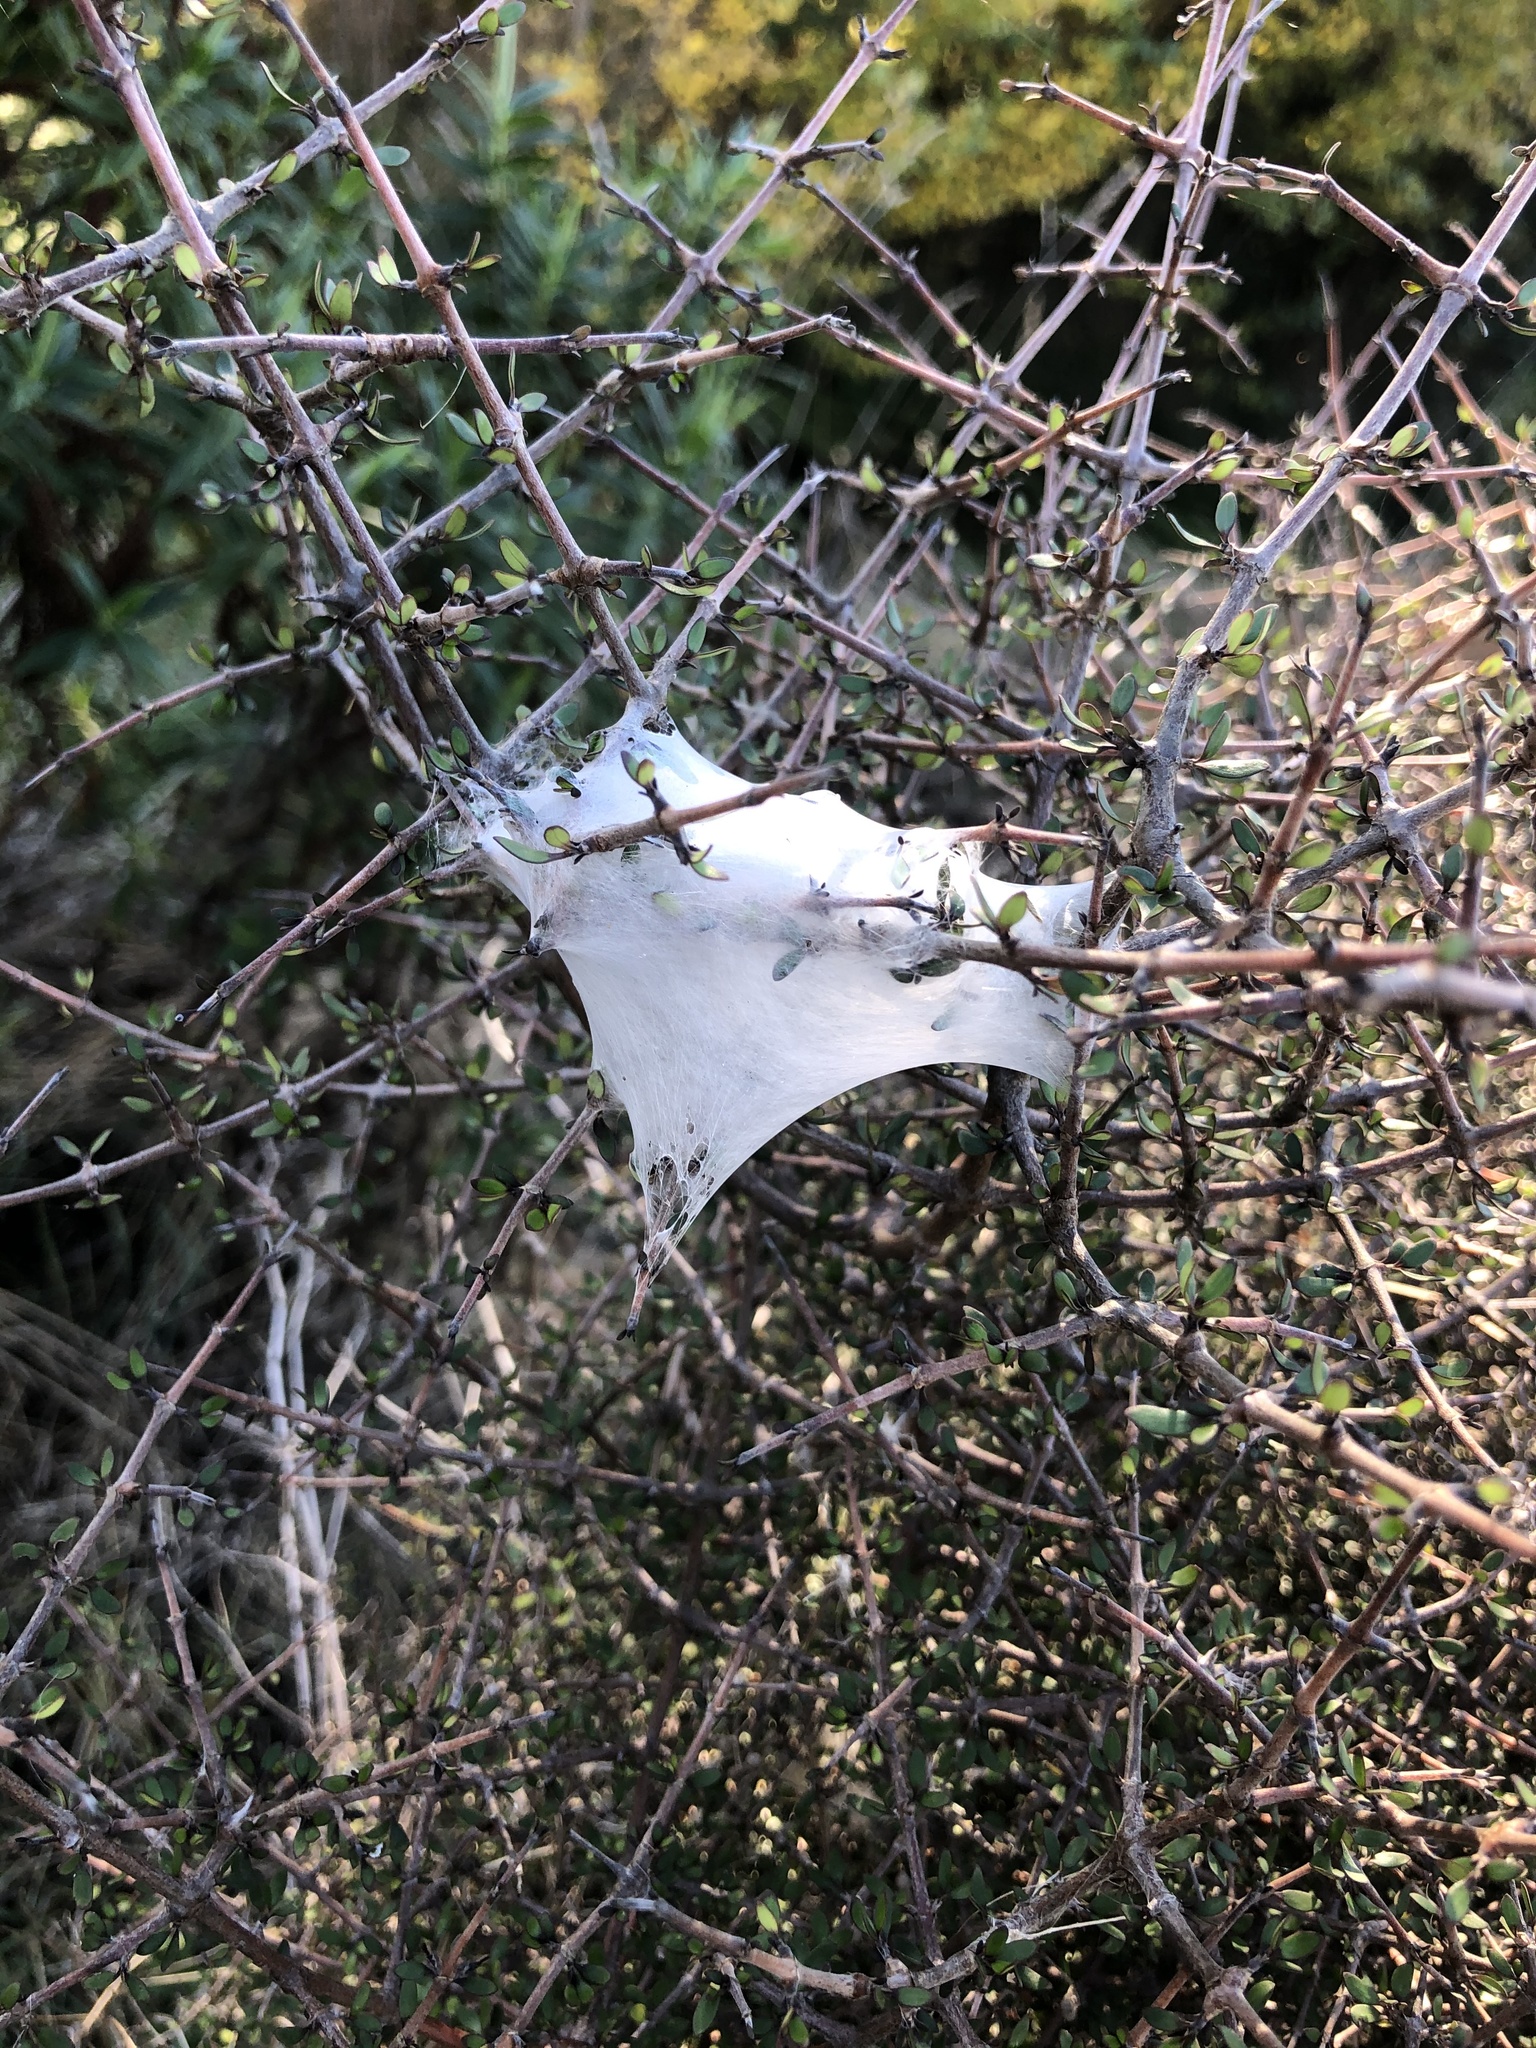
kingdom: Animalia
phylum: Arthropoda
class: Arachnida
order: Araneae
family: Pisauridae
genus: Dolomedes
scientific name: Dolomedes minor
